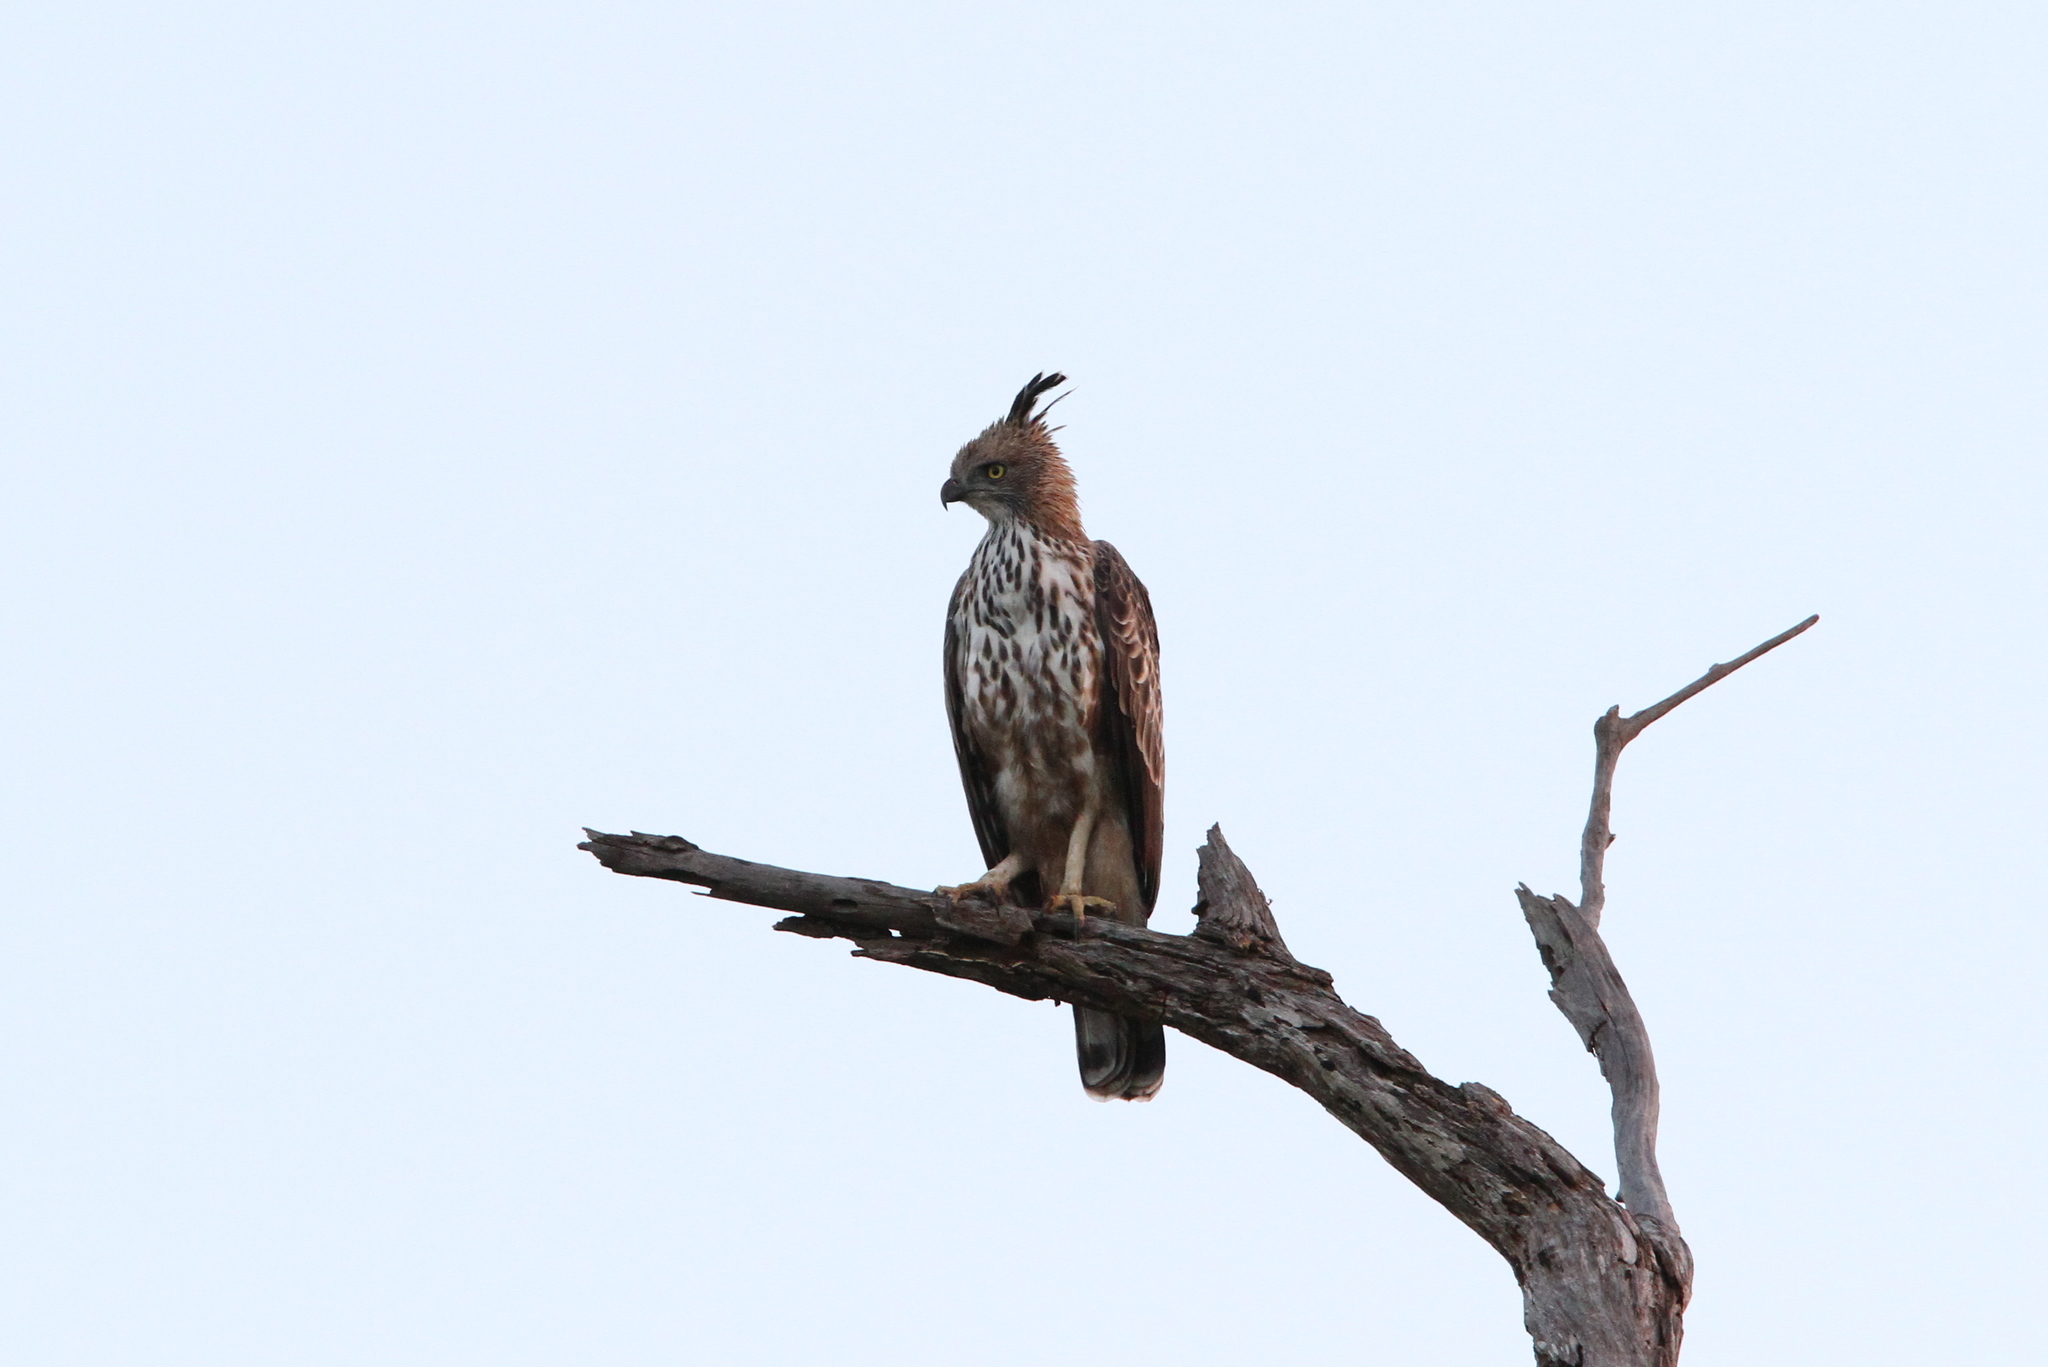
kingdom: Animalia
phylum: Chordata
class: Aves
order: Accipitriformes
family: Accipitridae
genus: Nisaetus
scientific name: Nisaetus cirrhatus
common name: Changeable hawk-eagle
